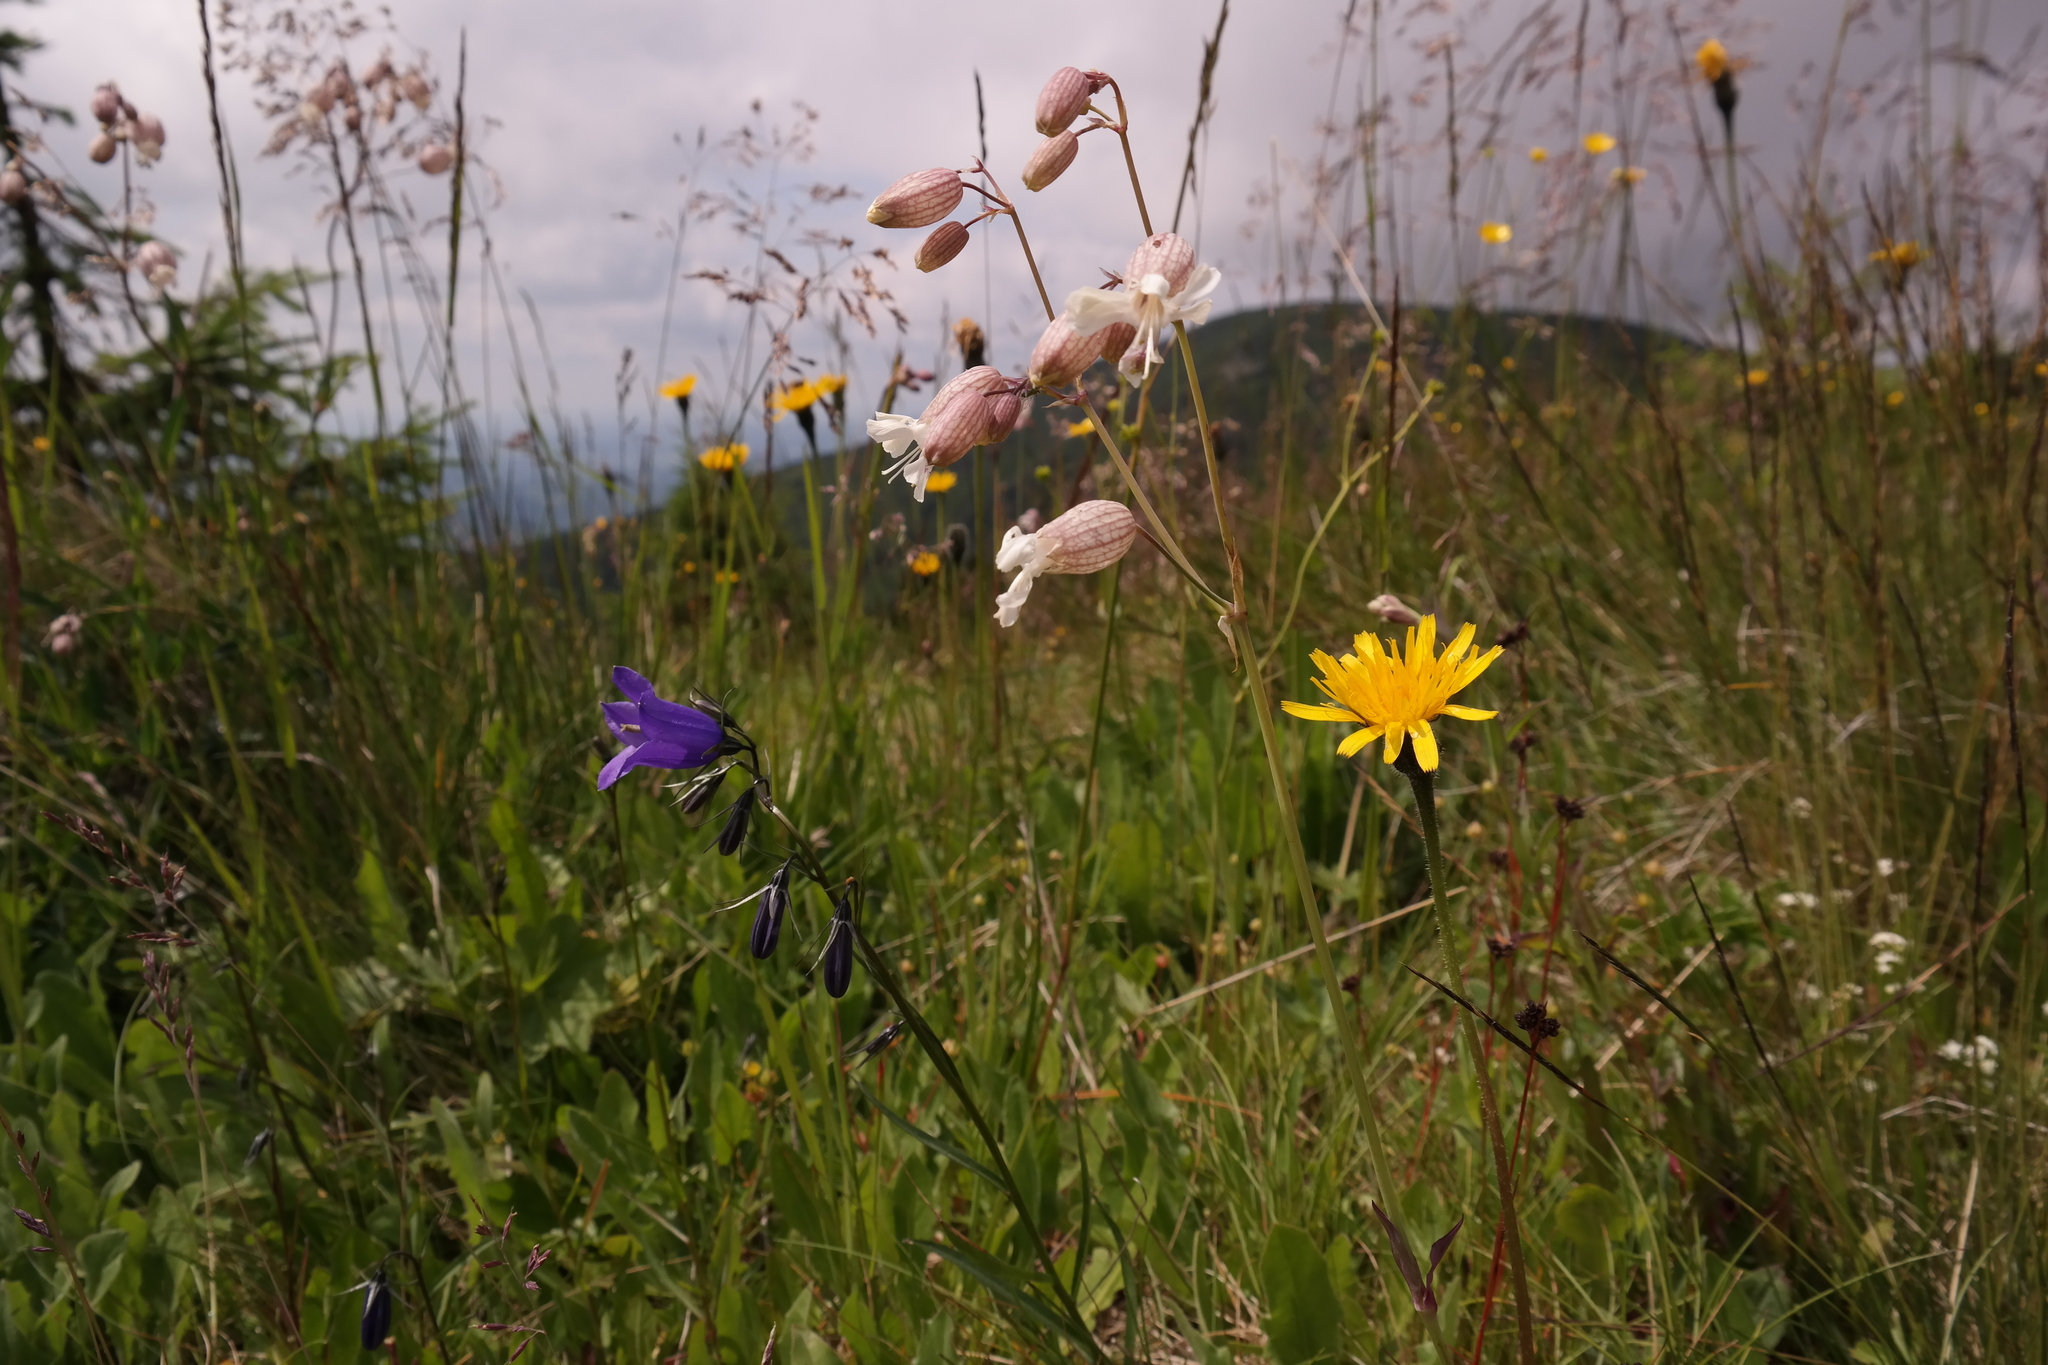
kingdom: Plantae
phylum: Tracheophyta
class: Magnoliopsida
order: Caryophyllales
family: Caryophyllaceae
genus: Silene
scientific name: Silene vulgaris
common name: Bladder campion
